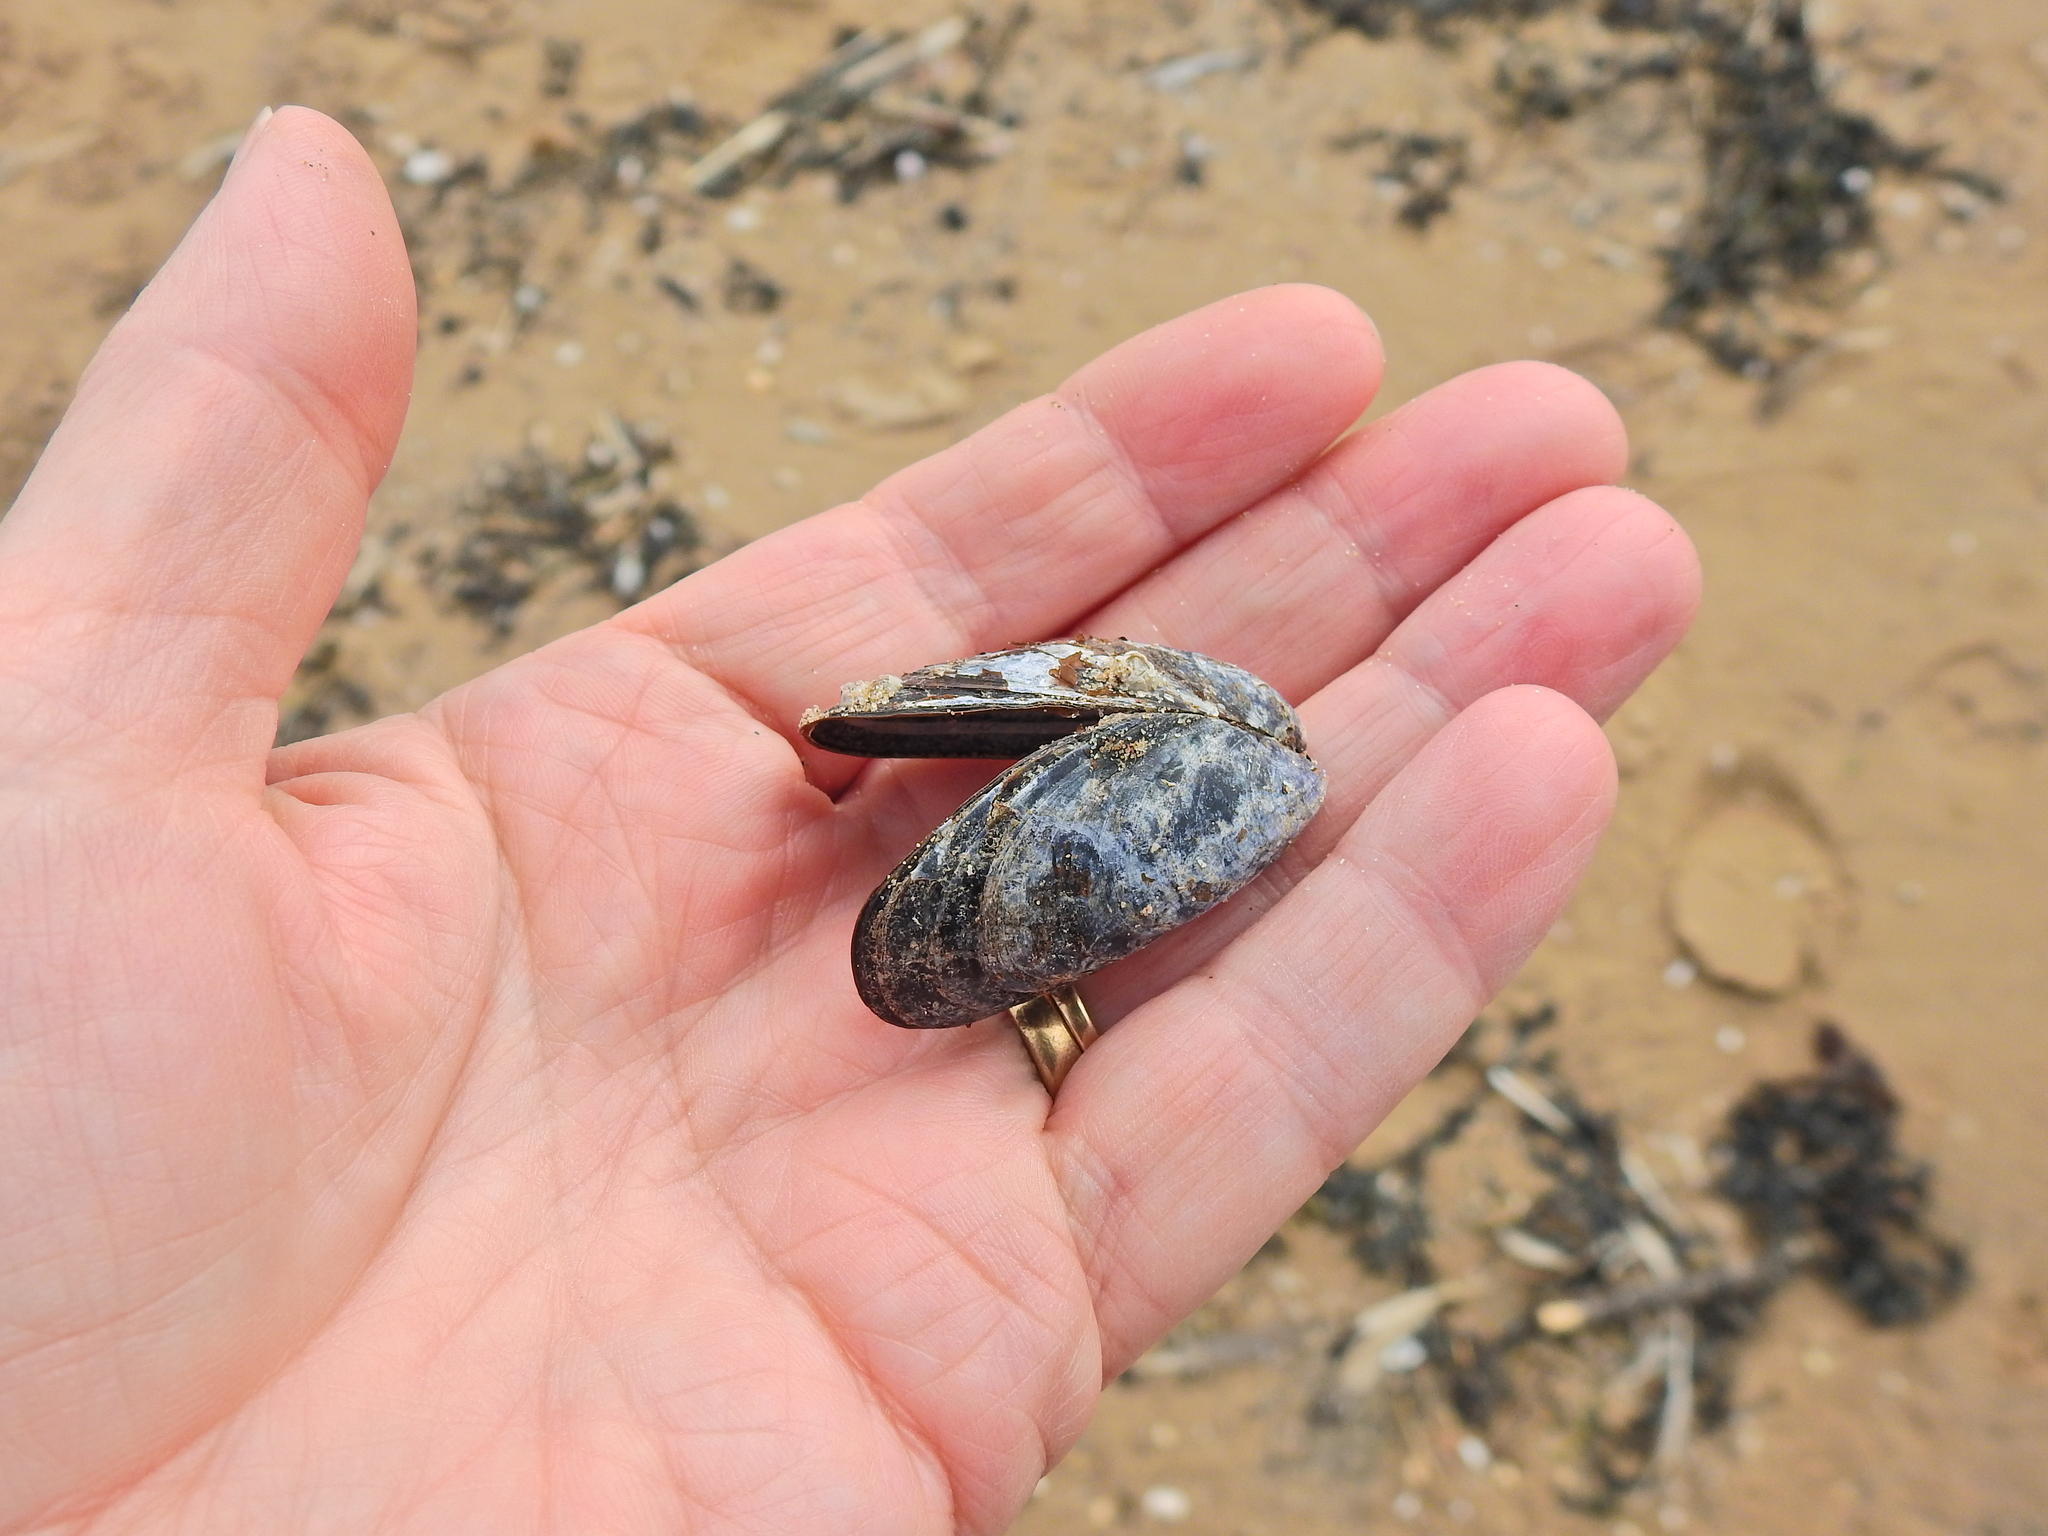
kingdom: Animalia
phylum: Mollusca
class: Bivalvia
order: Mytilida
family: Mytilidae
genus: Mytilus
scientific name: Mytilus edulis
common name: Blue mussel
